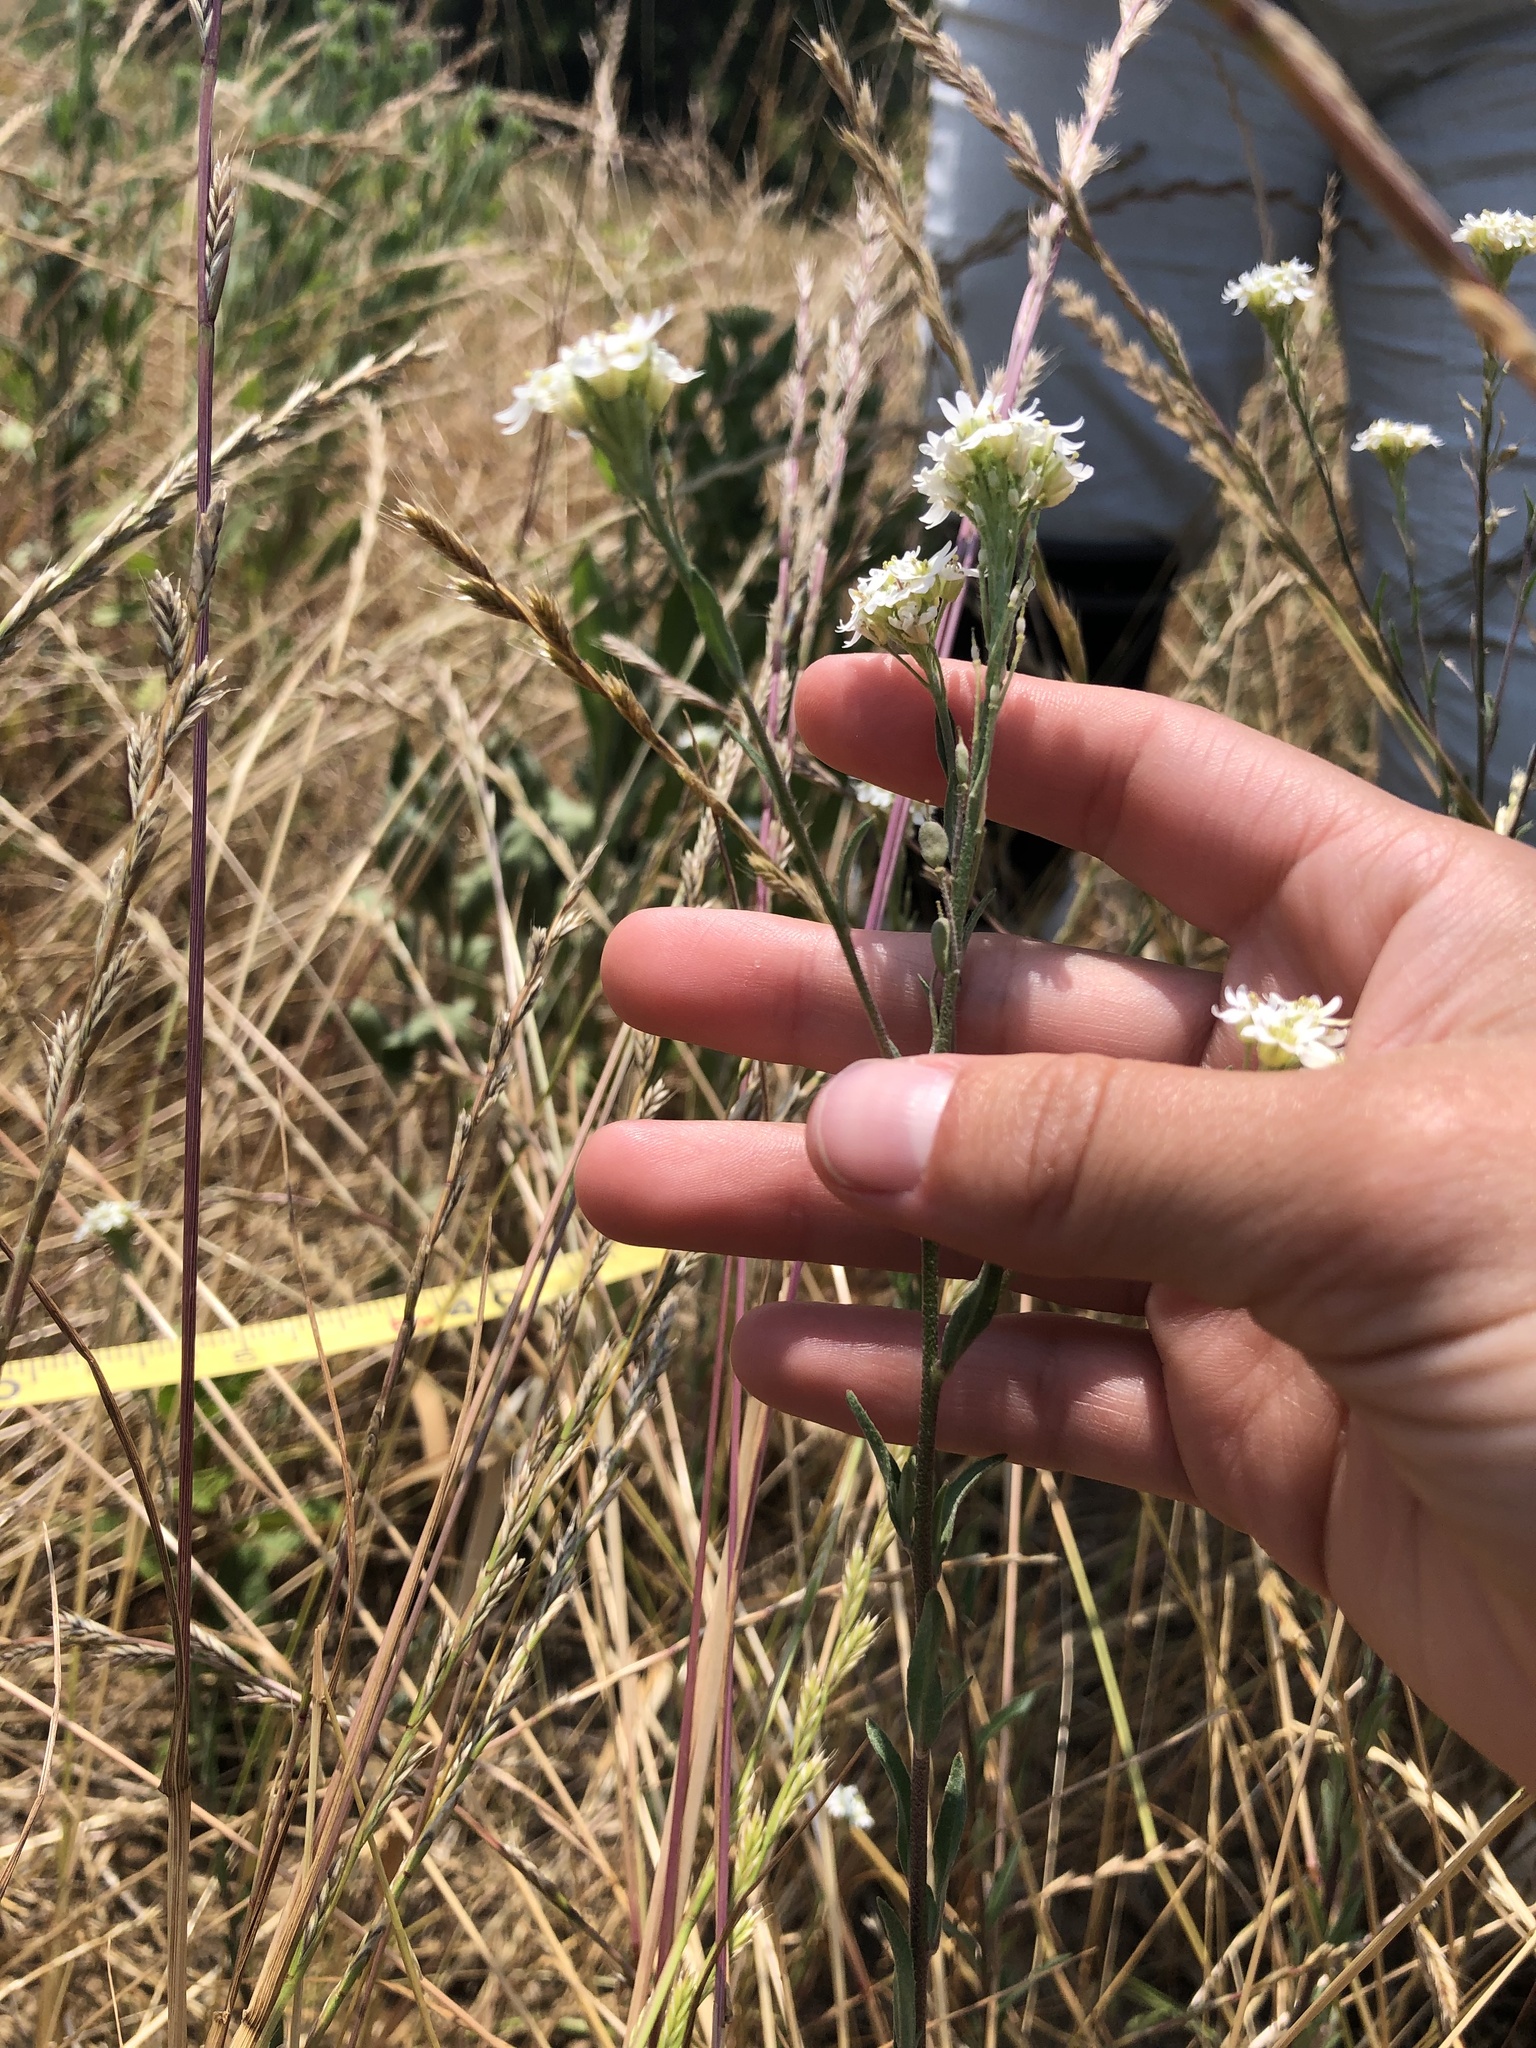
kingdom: Plantae
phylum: Tracheophyta
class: Magnoliopsida
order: Brassicales
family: Brassicaceae
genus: Berteroa
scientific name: Berteroa incana
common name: Hoary alison
